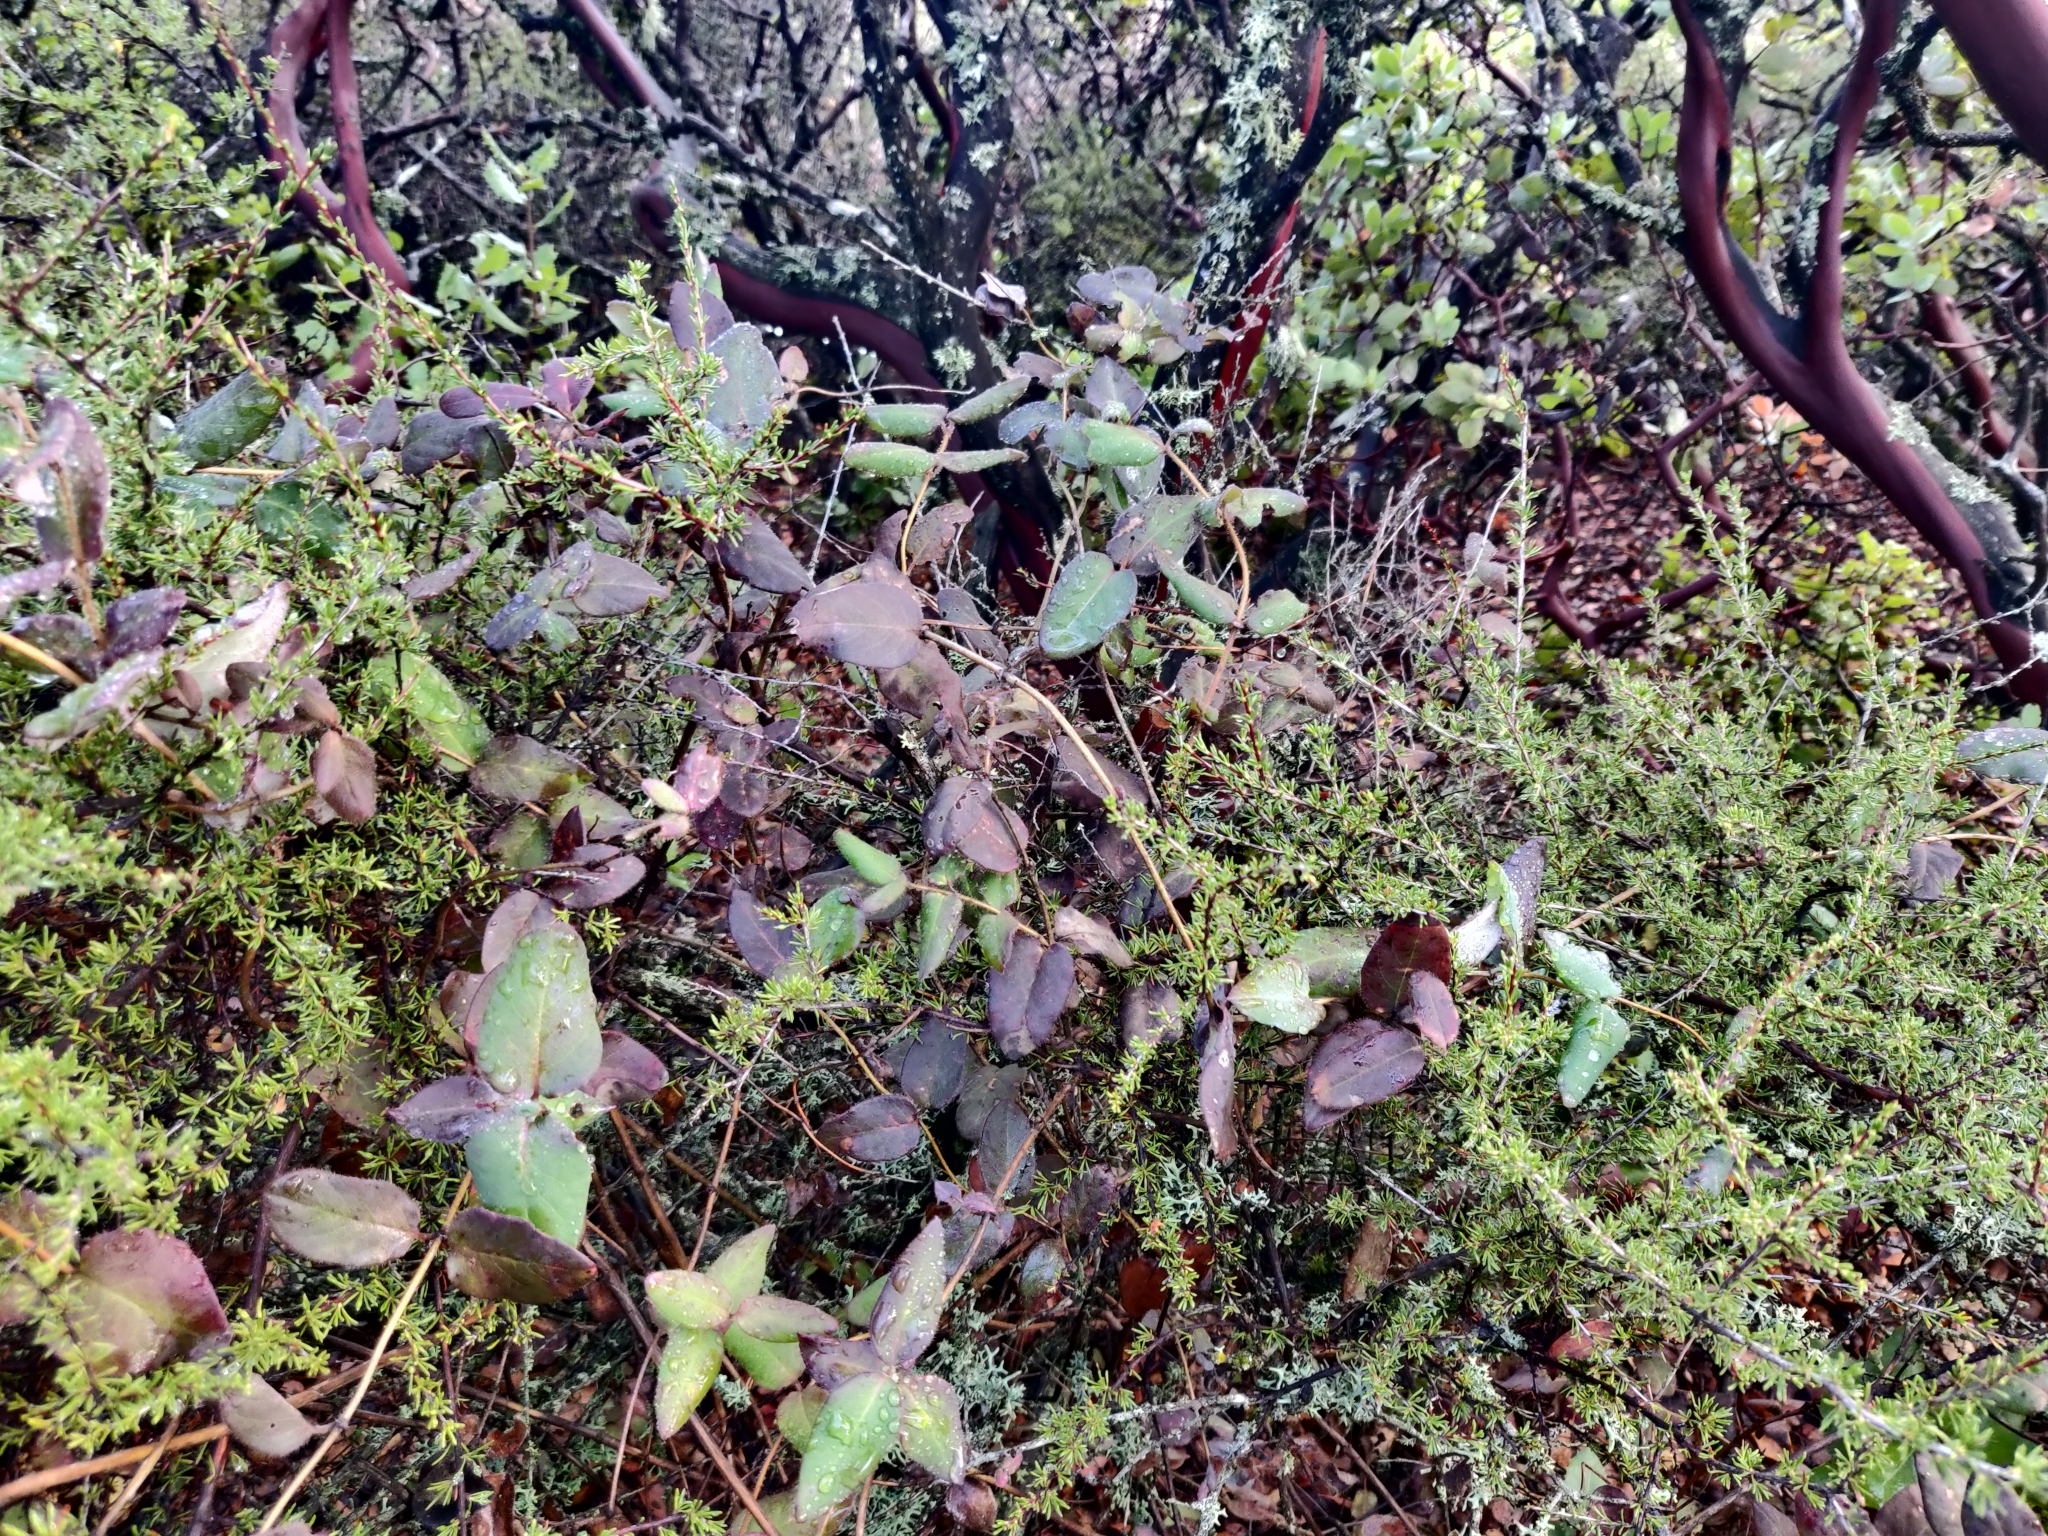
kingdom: Plantae
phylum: Tracheophyta
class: Magnoliopsida
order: Dipsacales
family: Caprifoliaceae
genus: Lonicera
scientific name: Lonicera hispidula
